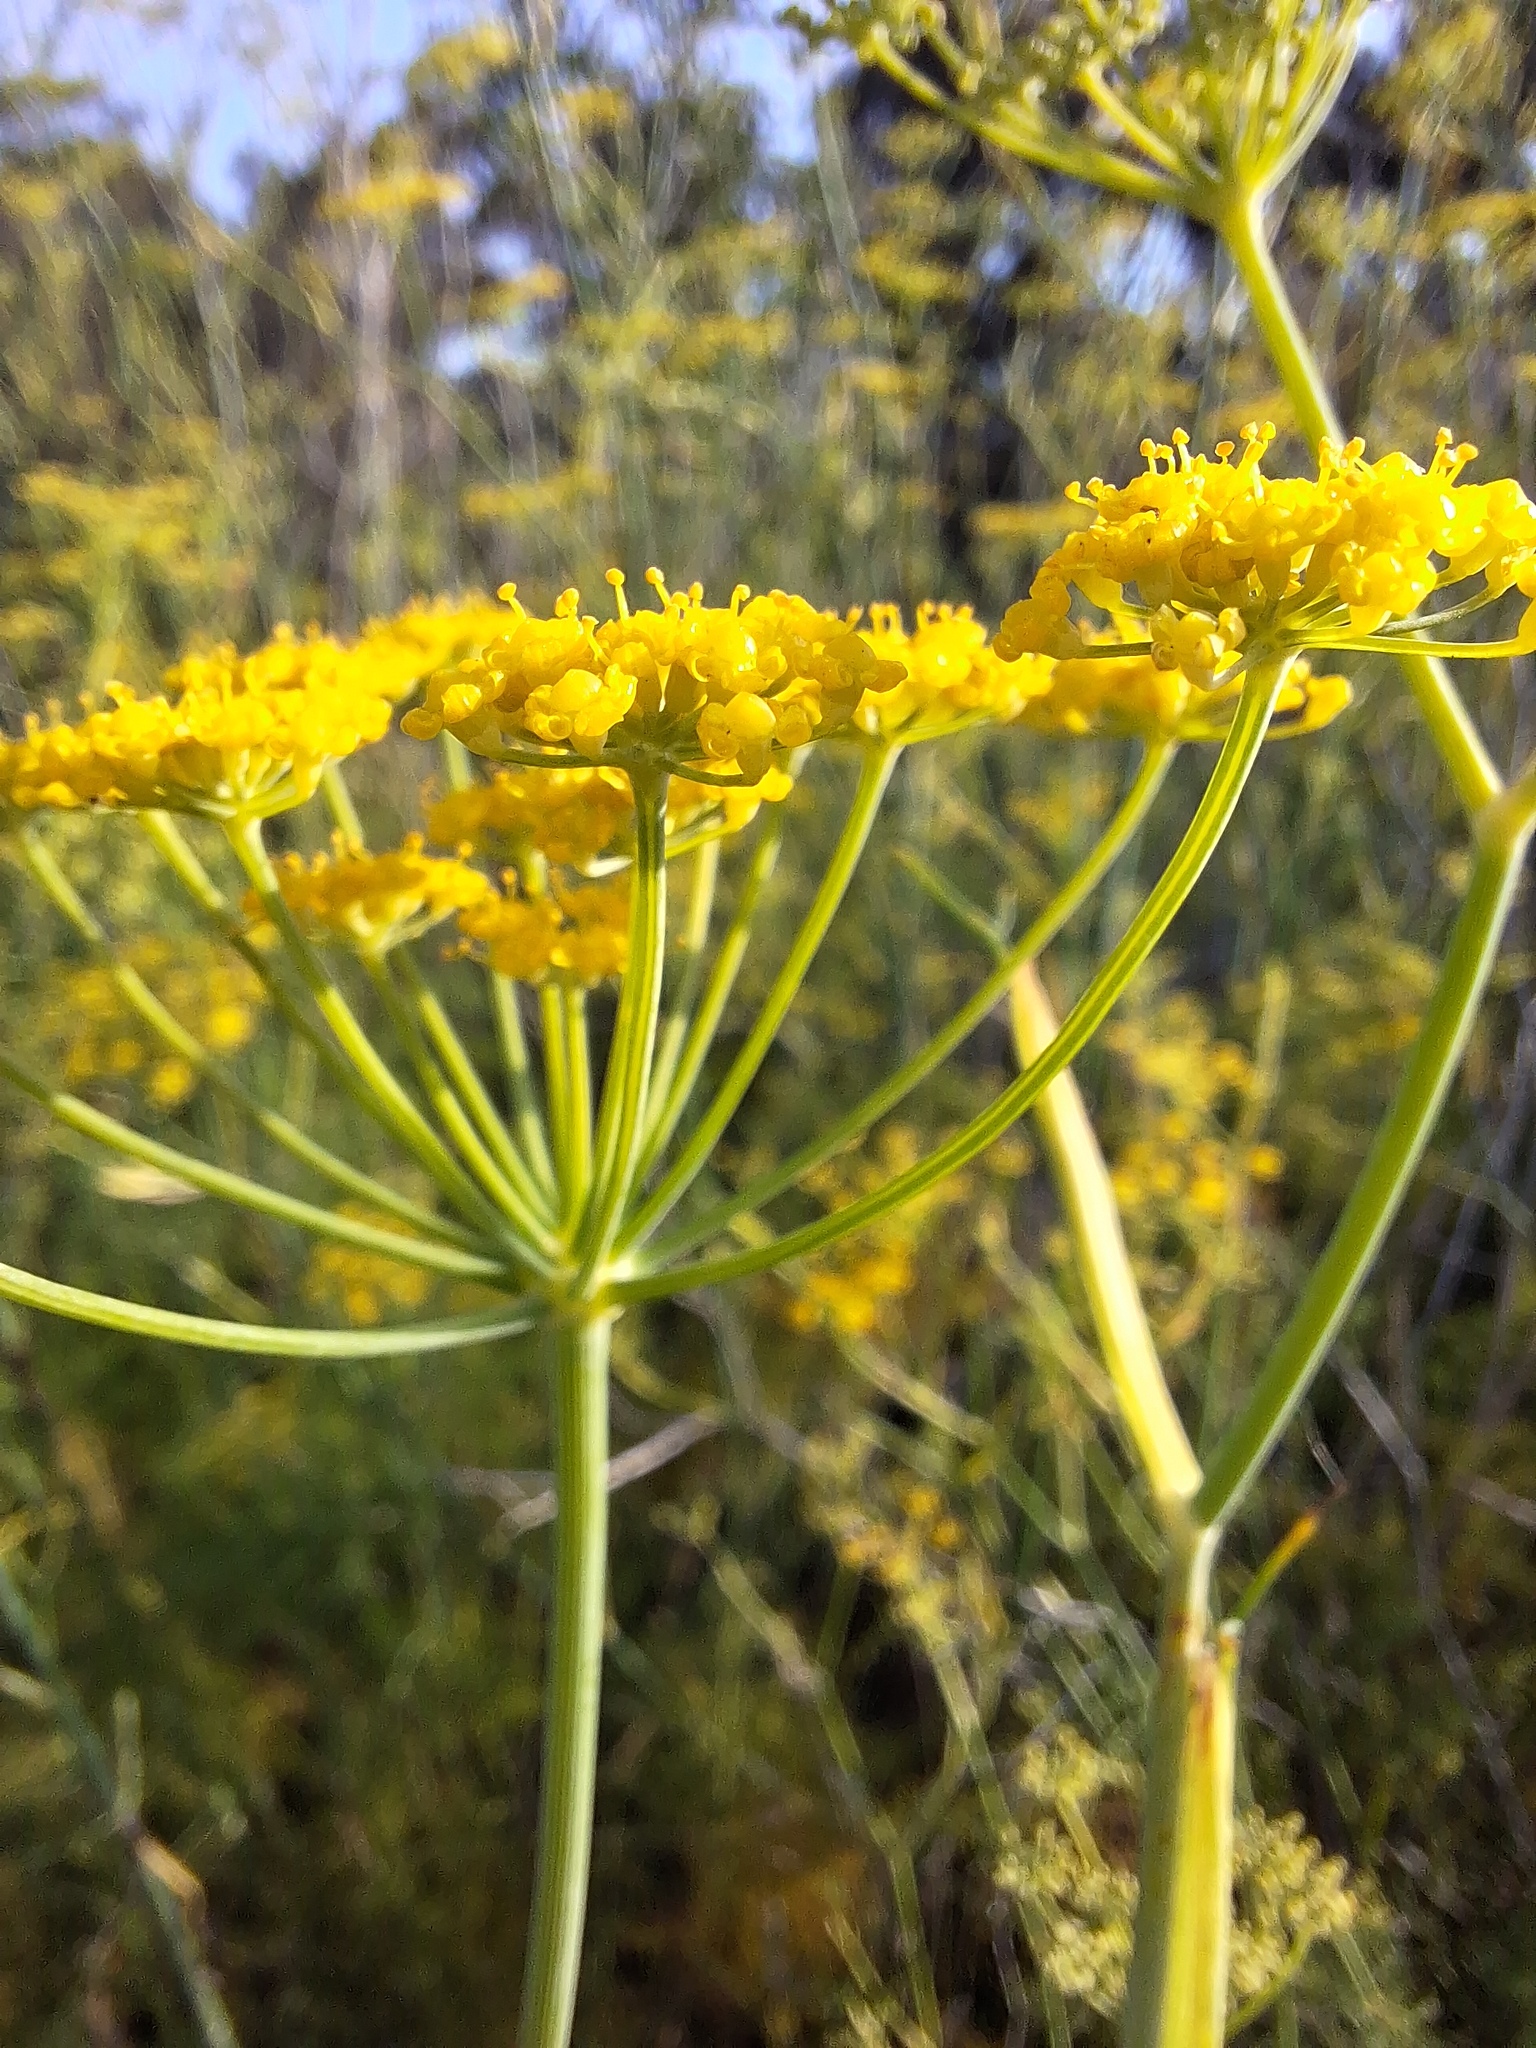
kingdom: Plantae
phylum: Tracheophyta
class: Magnoliopsida
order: Apiales
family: Apiaceae
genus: Foeniculum
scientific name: Foeniculum vulgare
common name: Fennel
